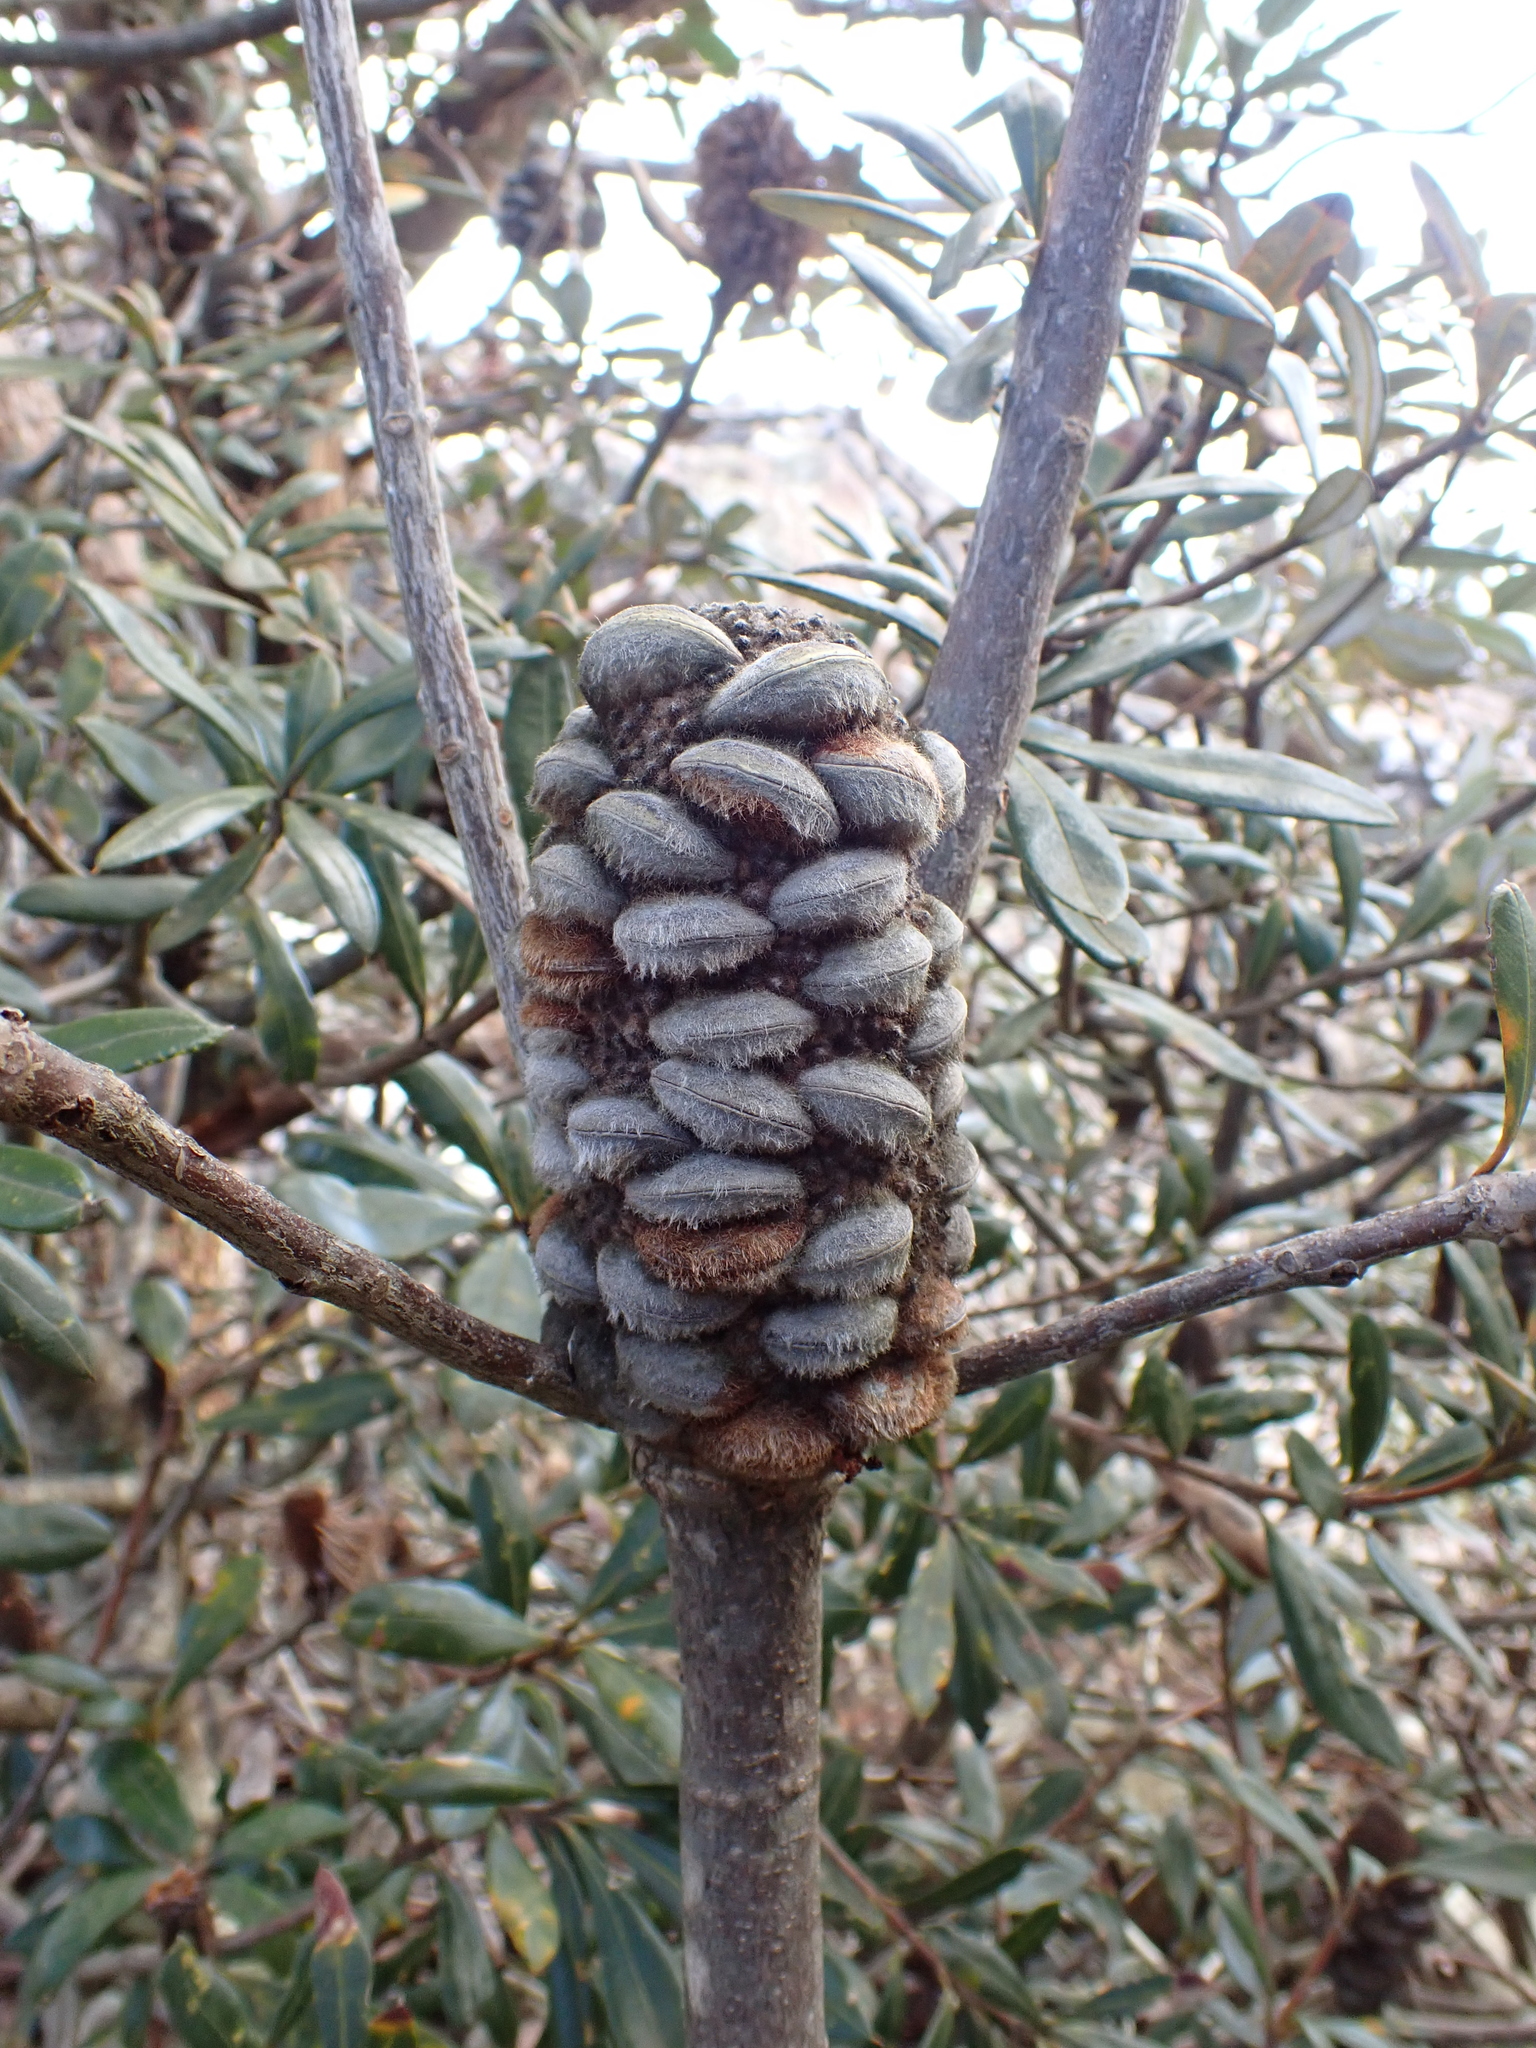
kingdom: Plantae
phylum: Tracheophyta
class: Magnoliopsida
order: Proteales
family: Proteaceae
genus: Banksia
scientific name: Banksia saxicola
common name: Grampians banksia
